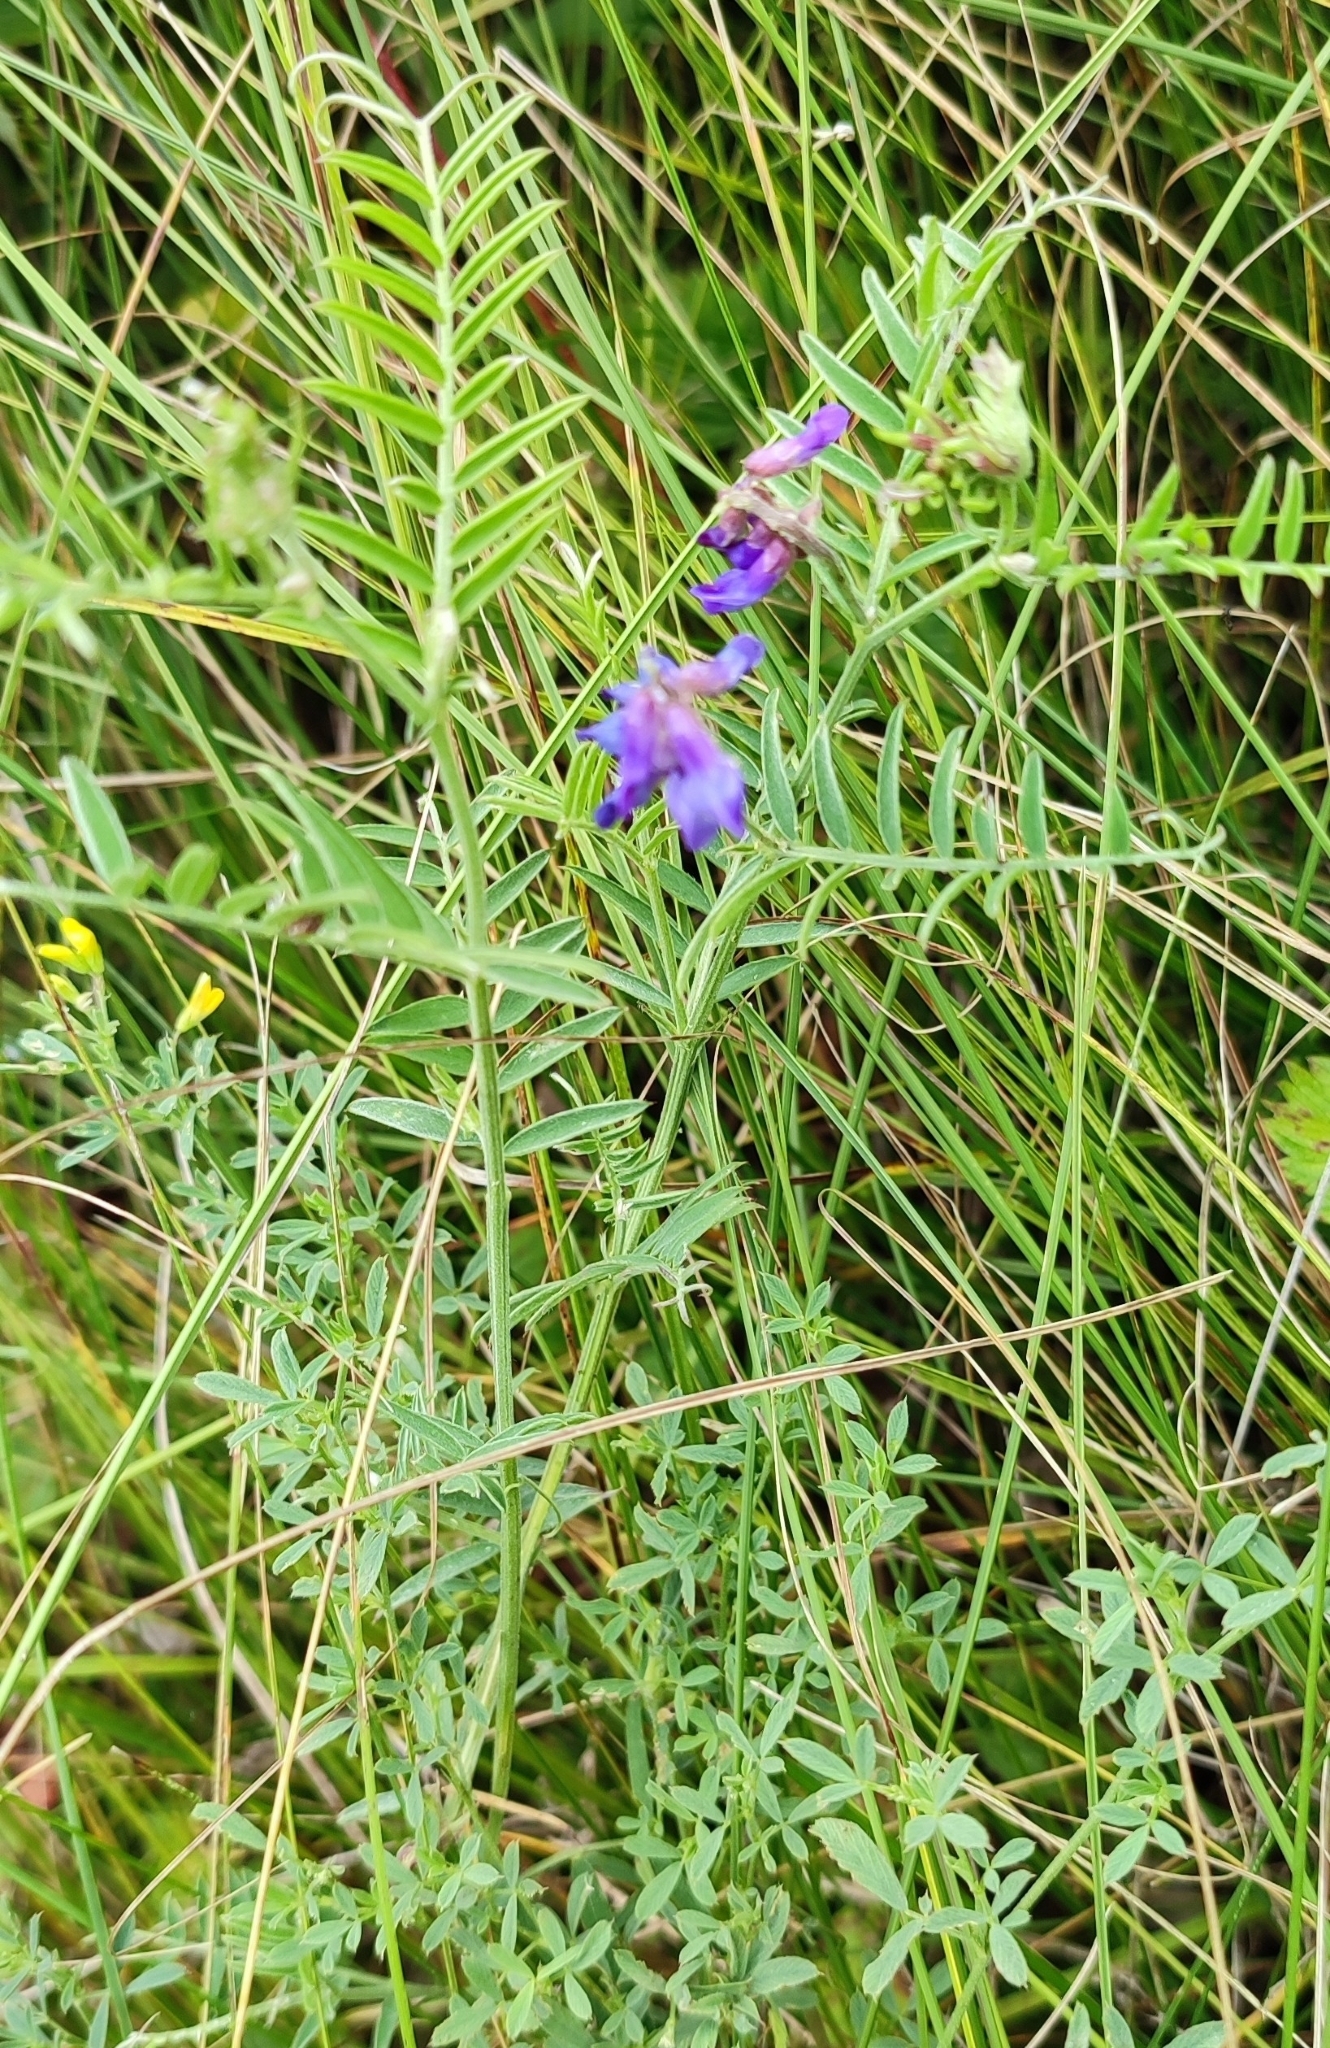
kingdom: Plantae
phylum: Tracheophyta
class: Magnoliopsida
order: Fabales
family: Fabaceae
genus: Vicia
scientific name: Vicia cracca
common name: Bird vetch
